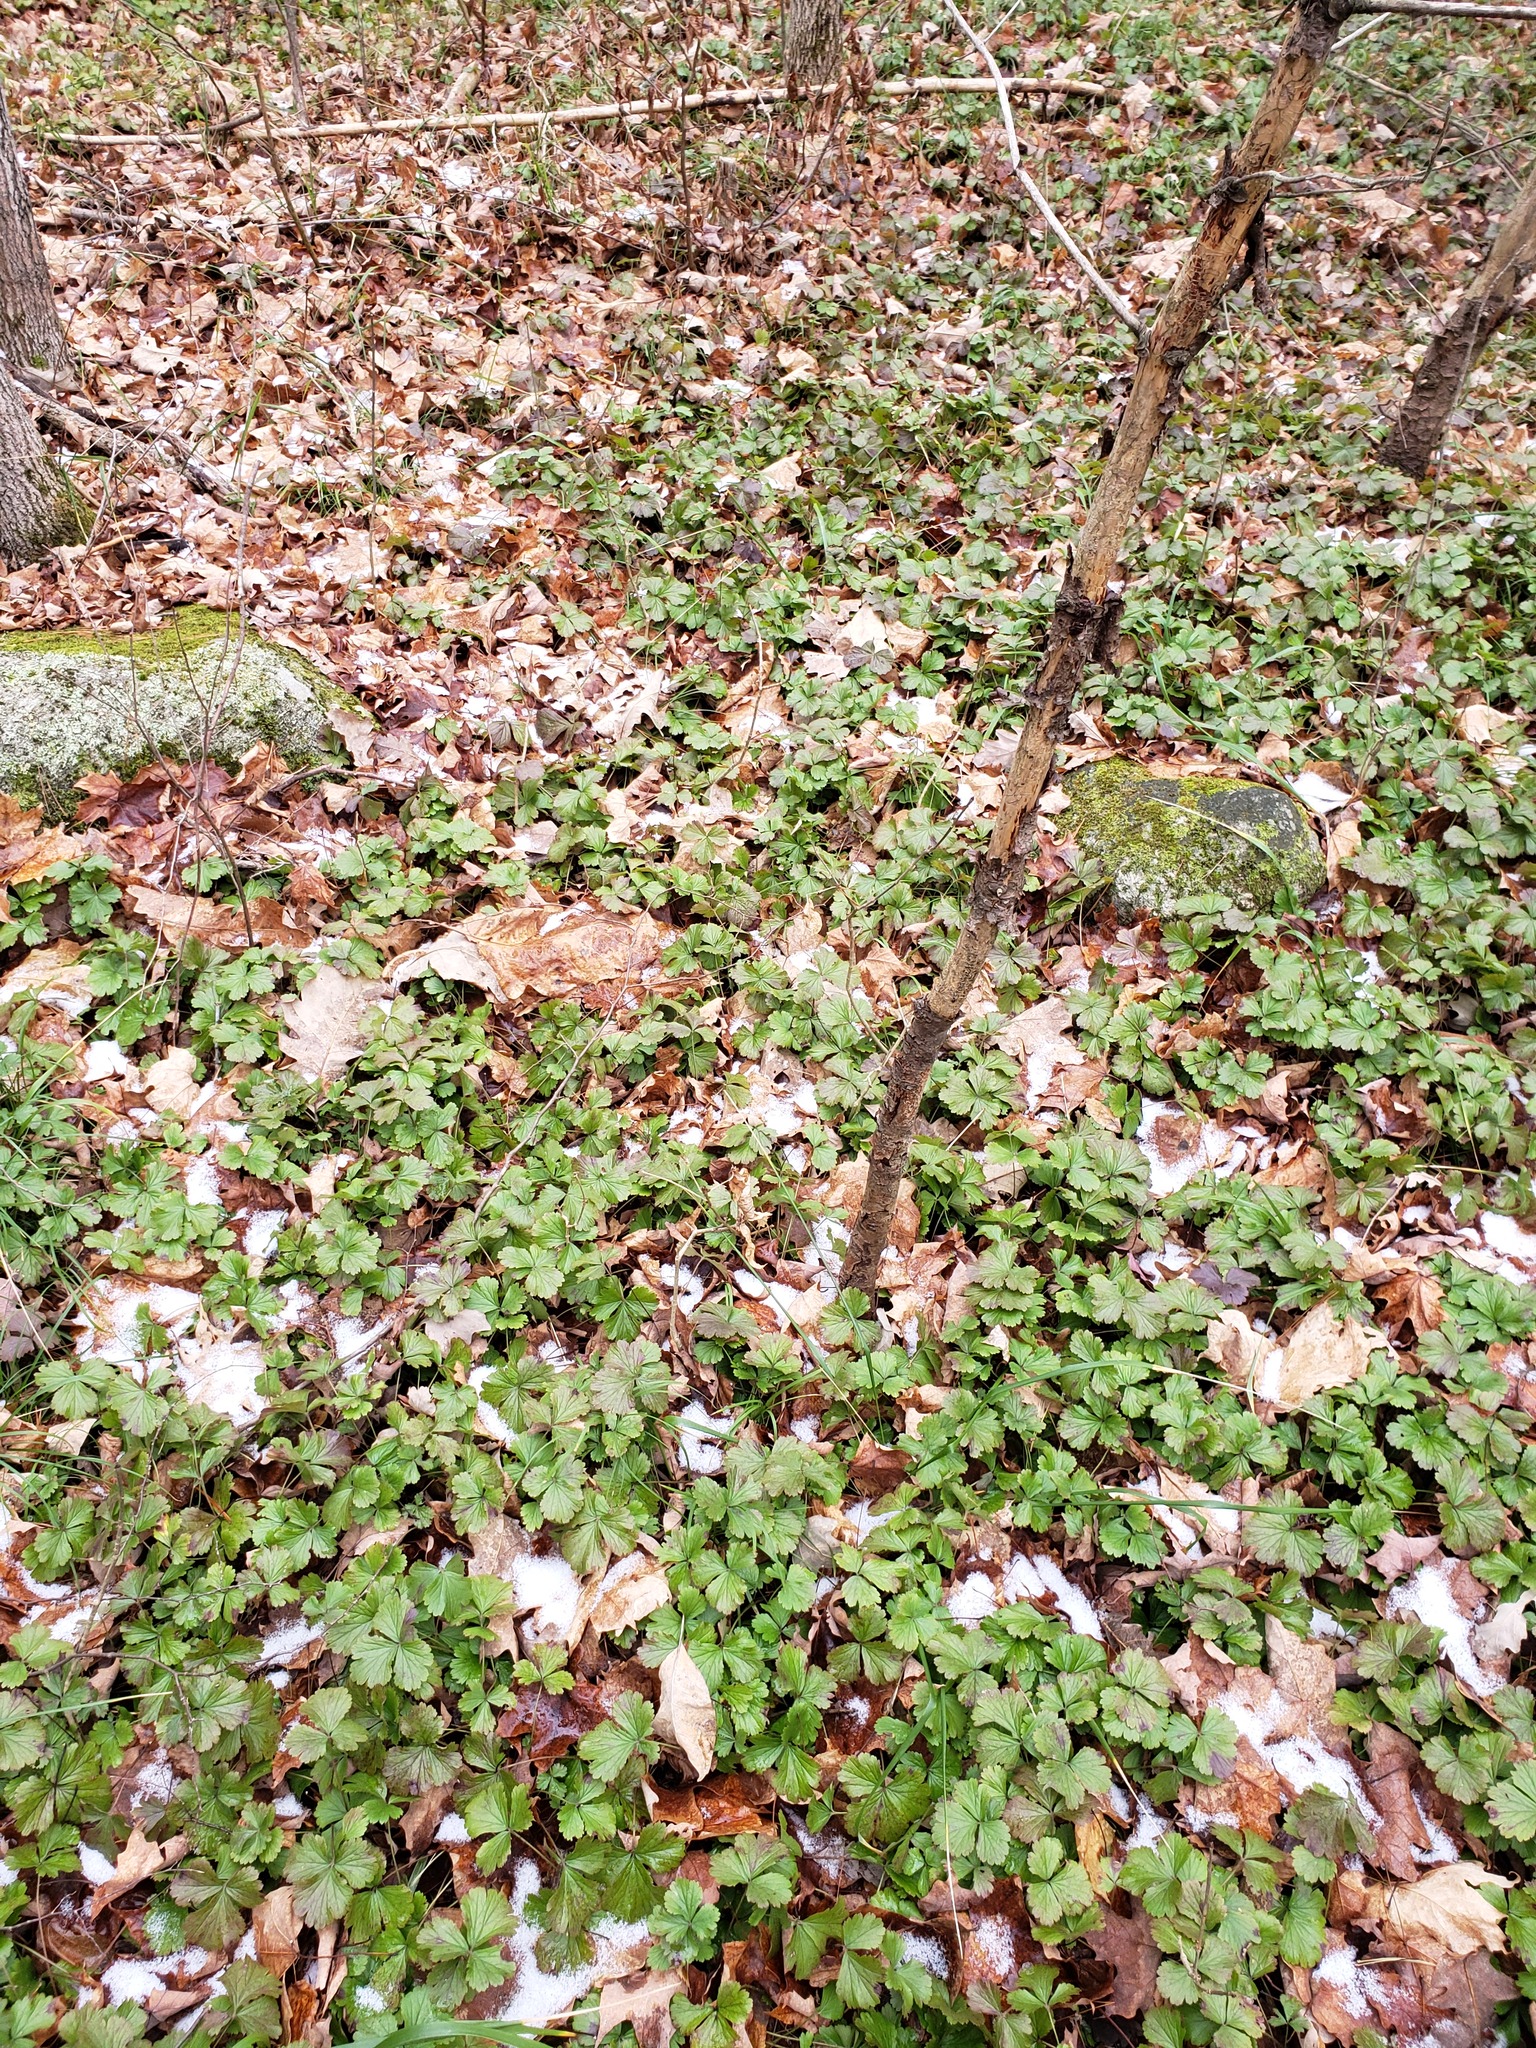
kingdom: Plantae
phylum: Tracheophyta
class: Magnoliopsida
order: Rosales
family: Rosaceae
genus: Geum
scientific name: Geum fragarioides
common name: Appalachian barren strawberry
